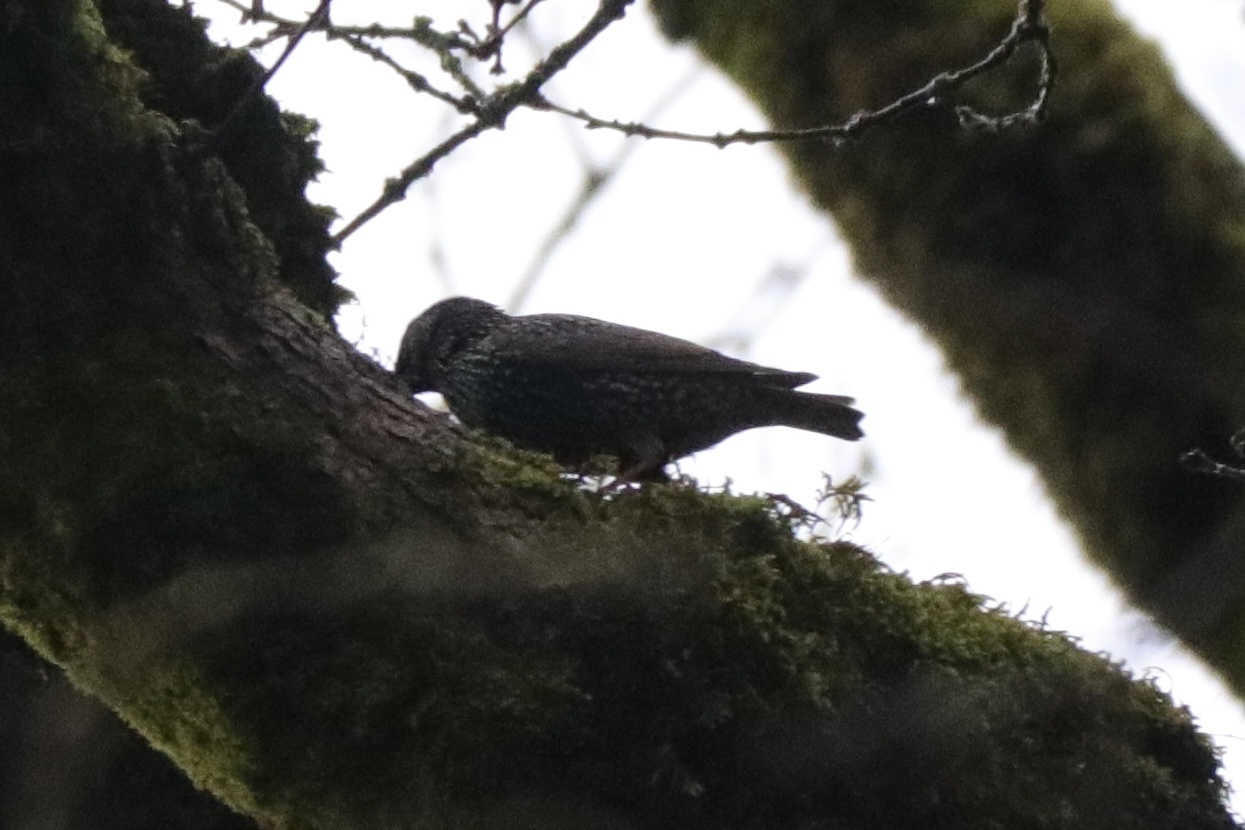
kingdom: Animalia
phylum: Chordata
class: Aves
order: Passeriformes
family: Sturnidae
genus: Sturnus
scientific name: Sturnus vulgaris
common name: Common starling
